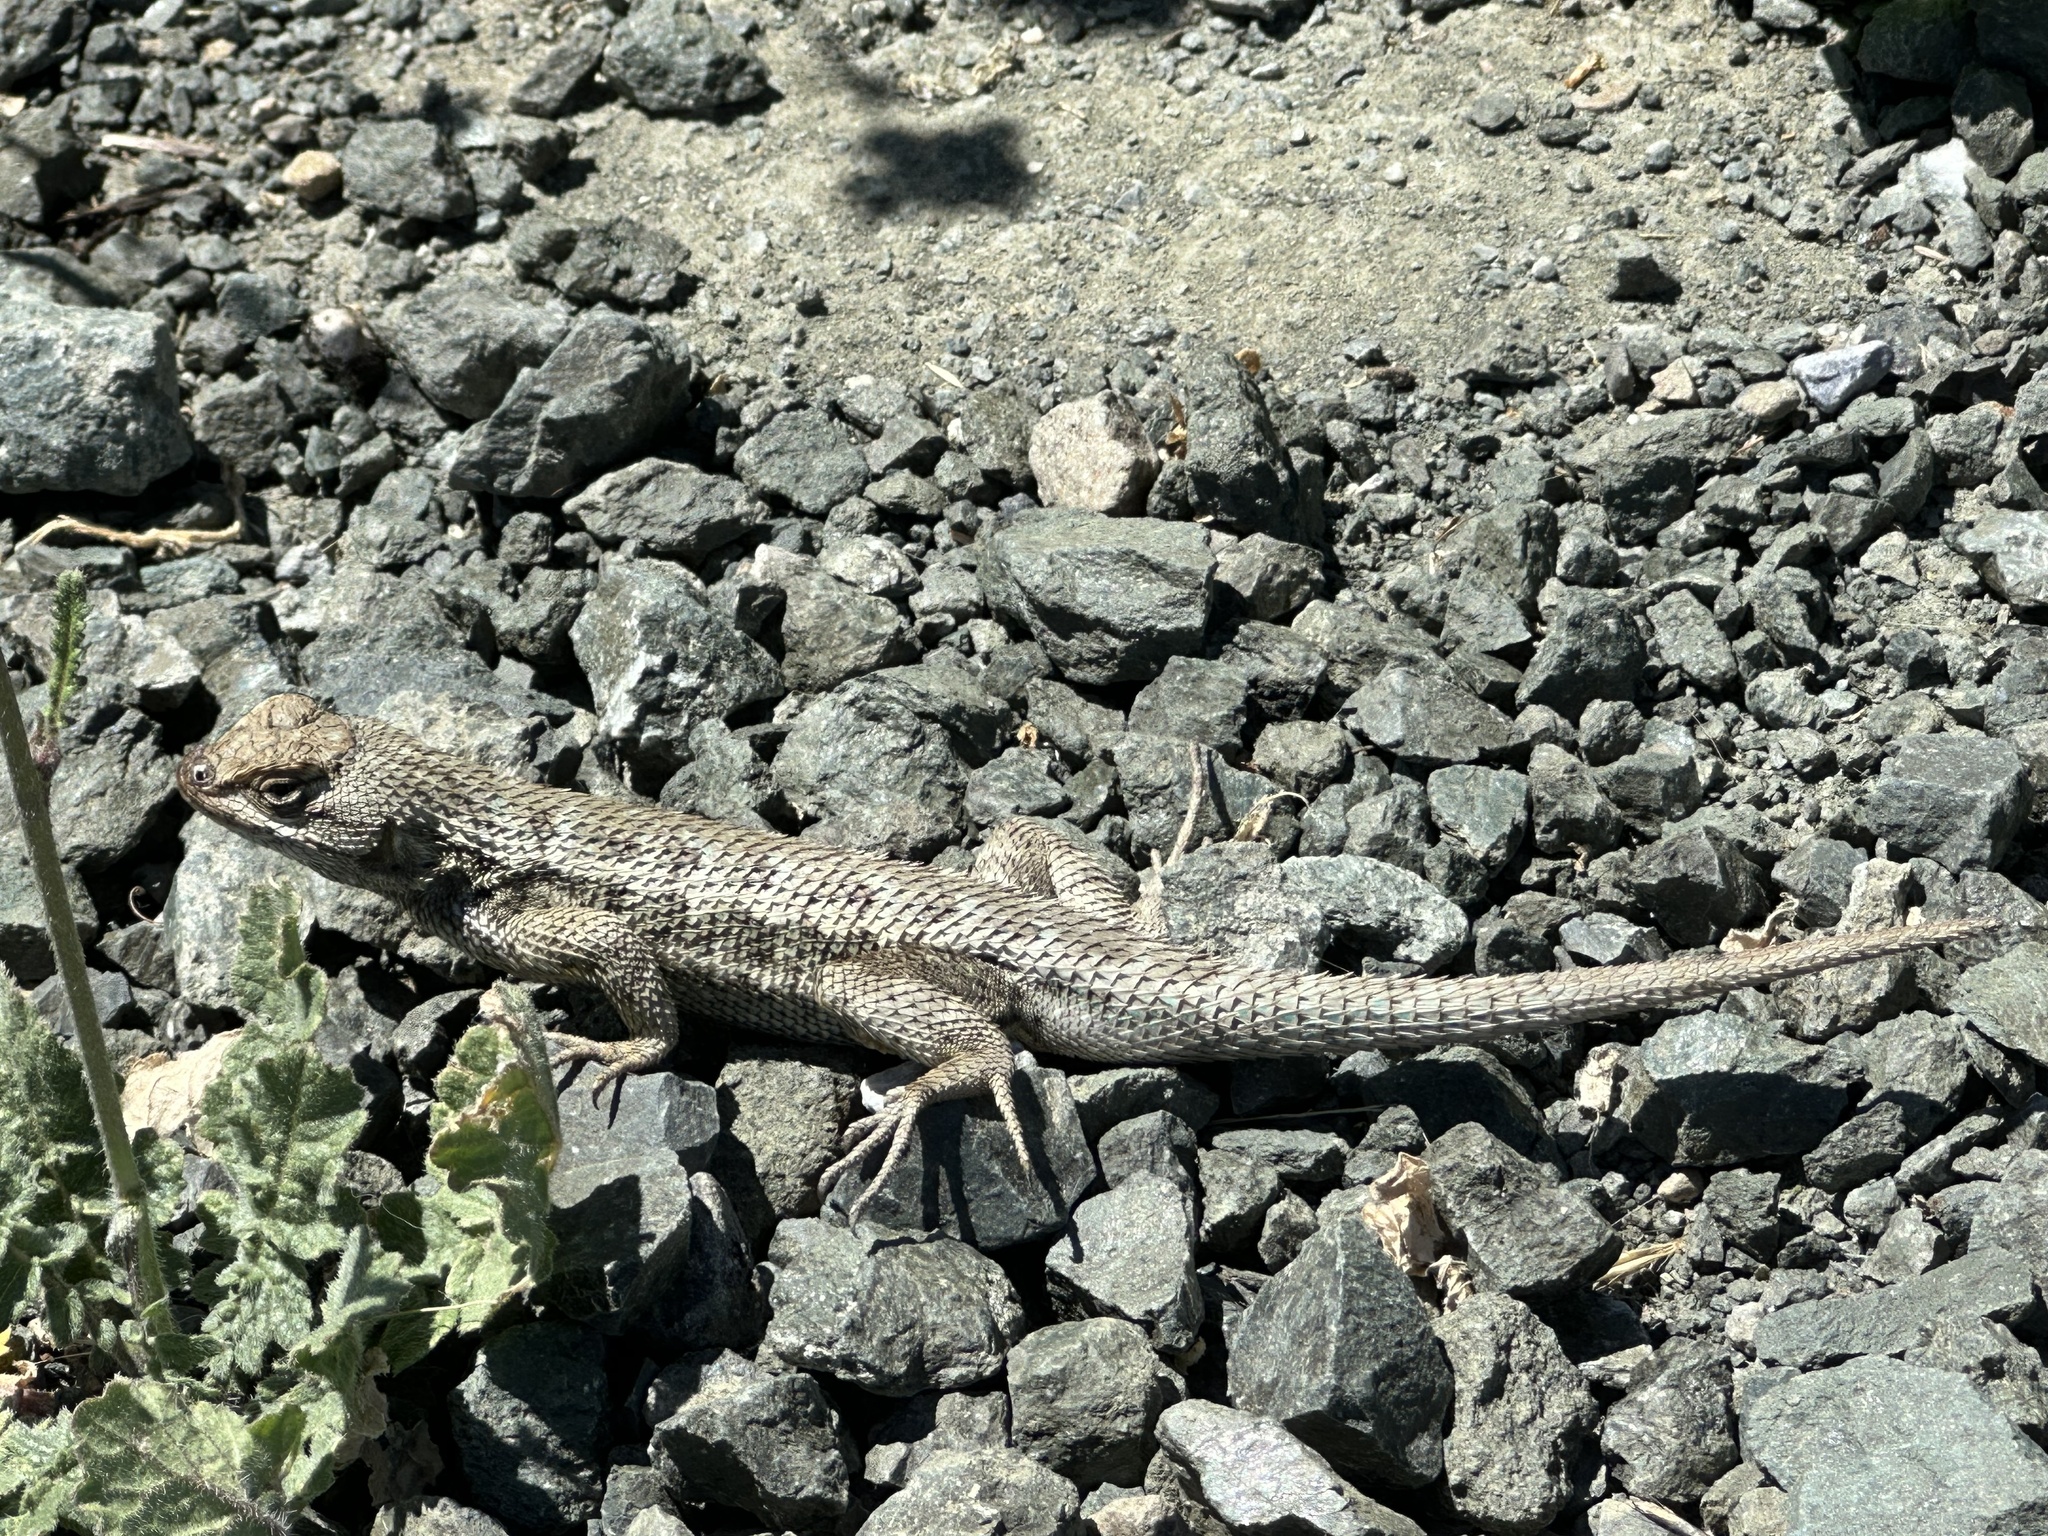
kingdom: Animalia
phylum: Chordata
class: Squamata
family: Phrynosomatidae
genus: Sceloporus
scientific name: Sceloporus occidentalis
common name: Western fence lizard
